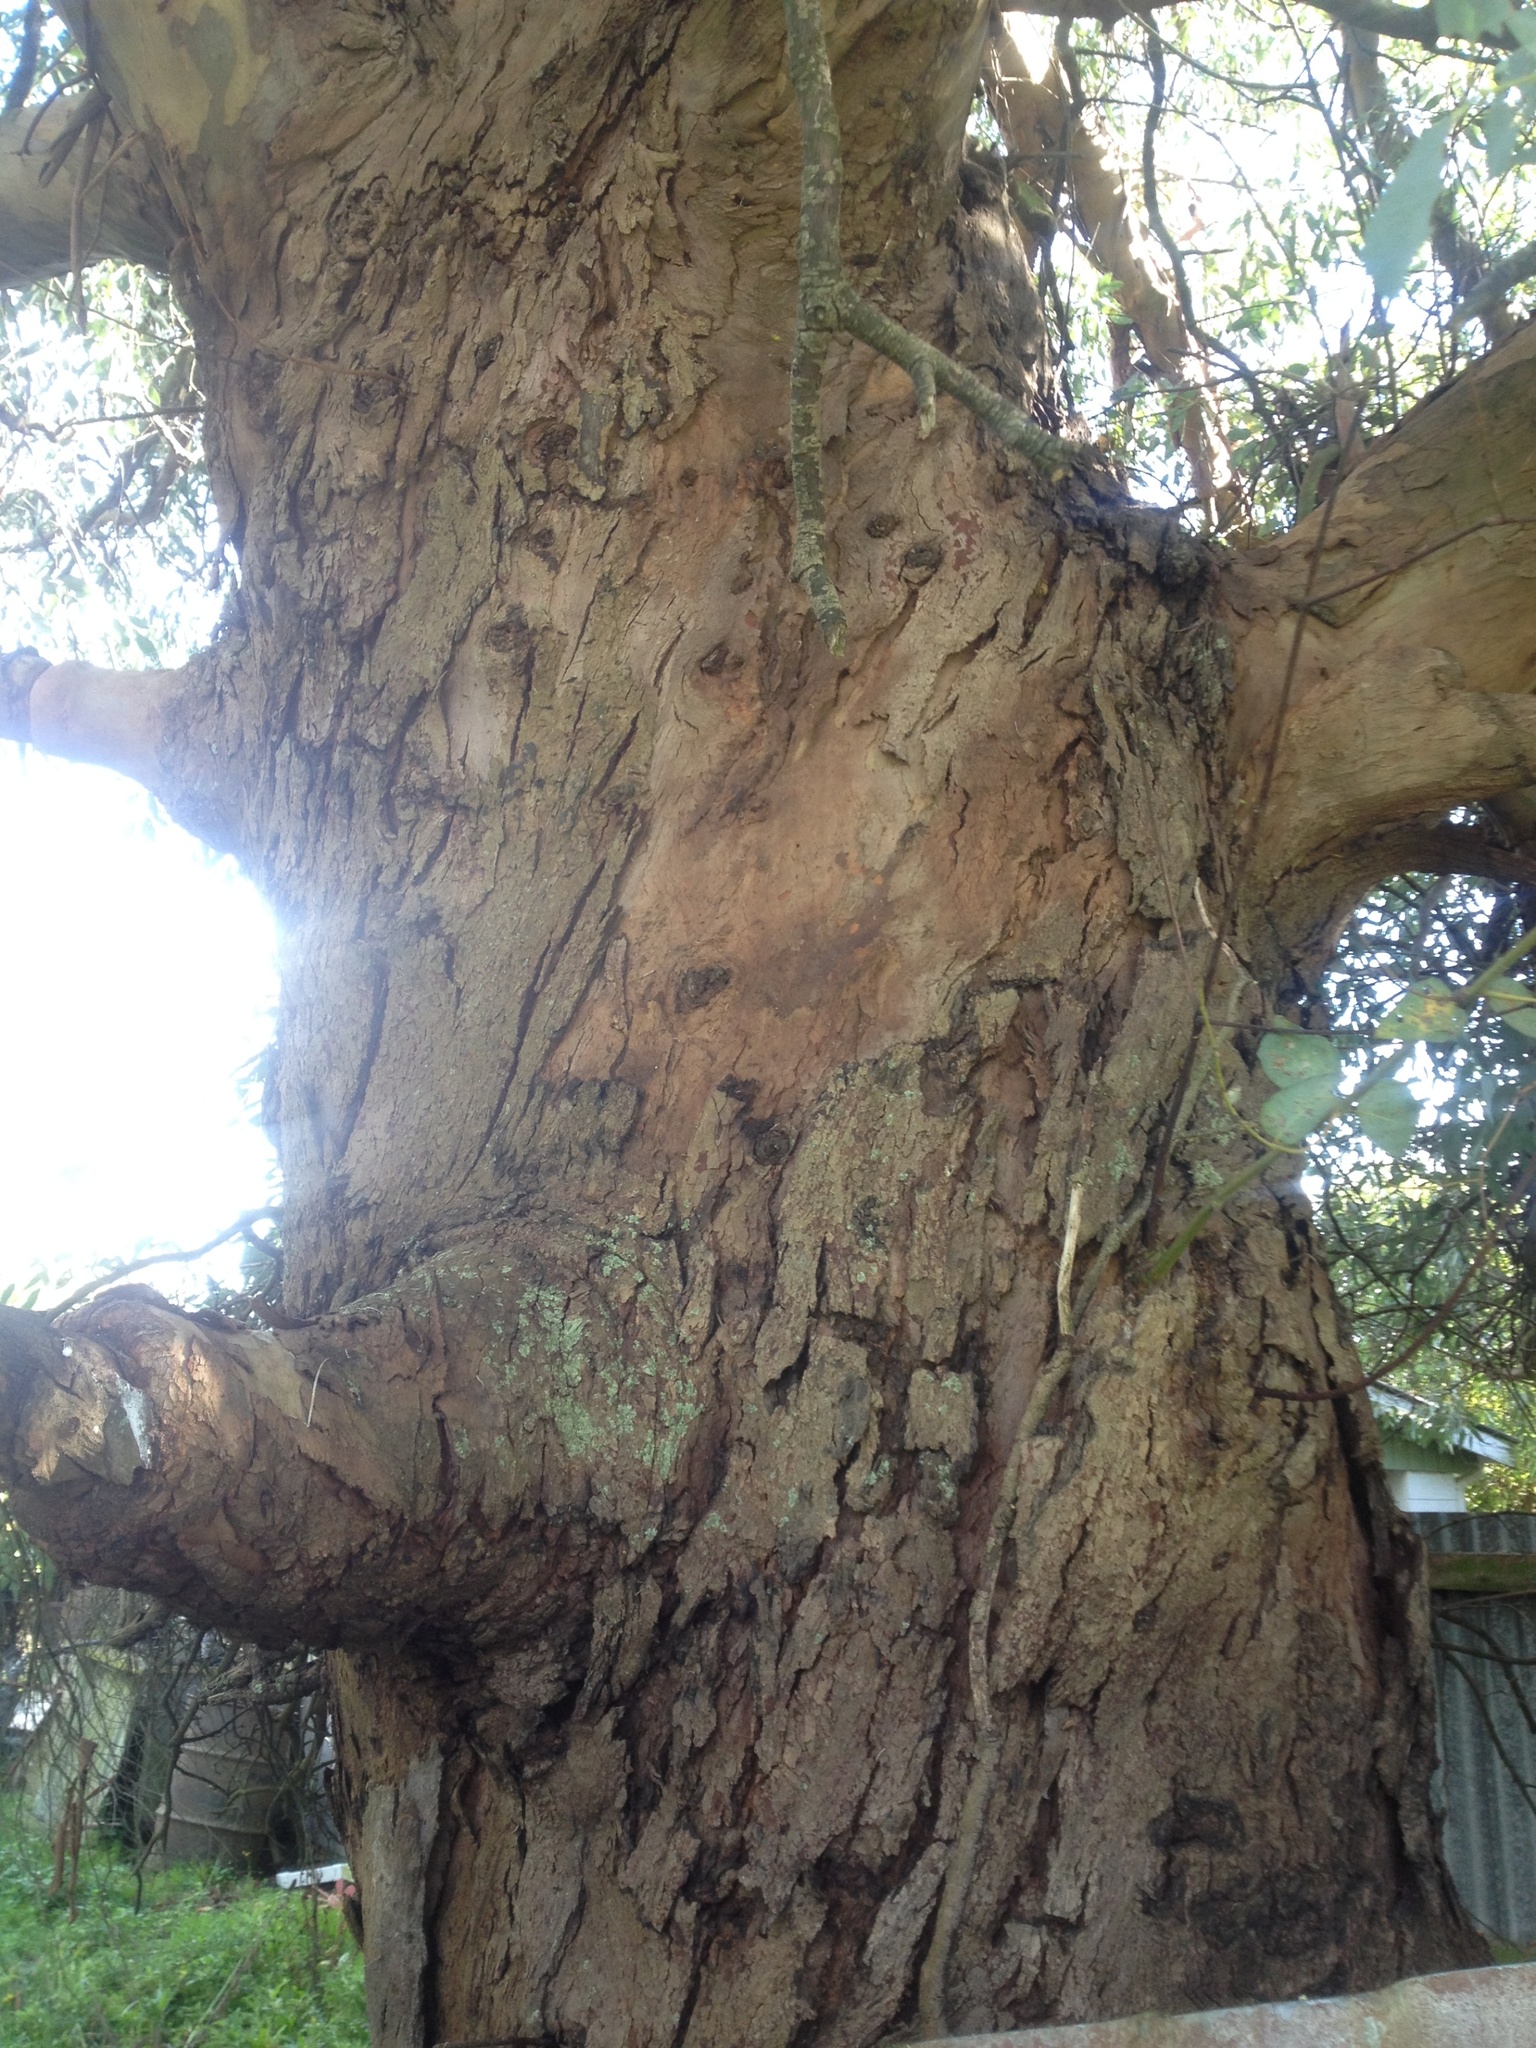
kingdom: Plantae
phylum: Tracheophyta
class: Magnoliopsida
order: Myrtales
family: Myrtaceae
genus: Eucalyptus
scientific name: Eucalyptus gunnii
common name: Cider gum
